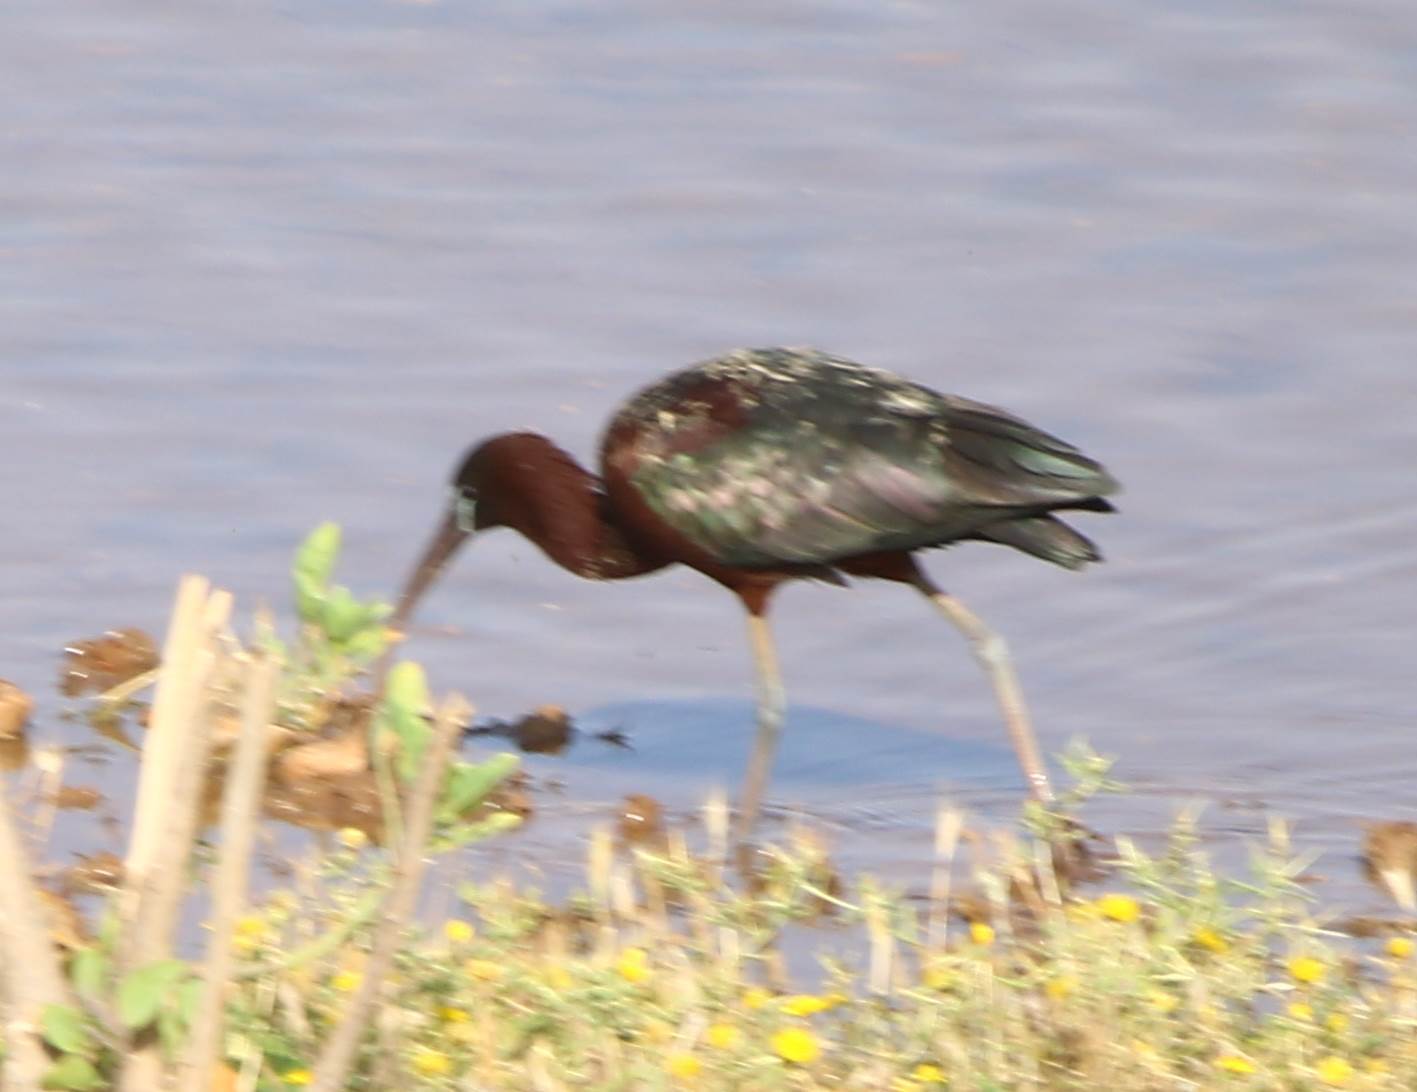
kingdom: Animalia
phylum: Chordata
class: Aves
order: Pelecaniformes
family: Threskiornithidae
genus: Plegadis
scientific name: Plegadis falcinellus
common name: Glossy ibis
